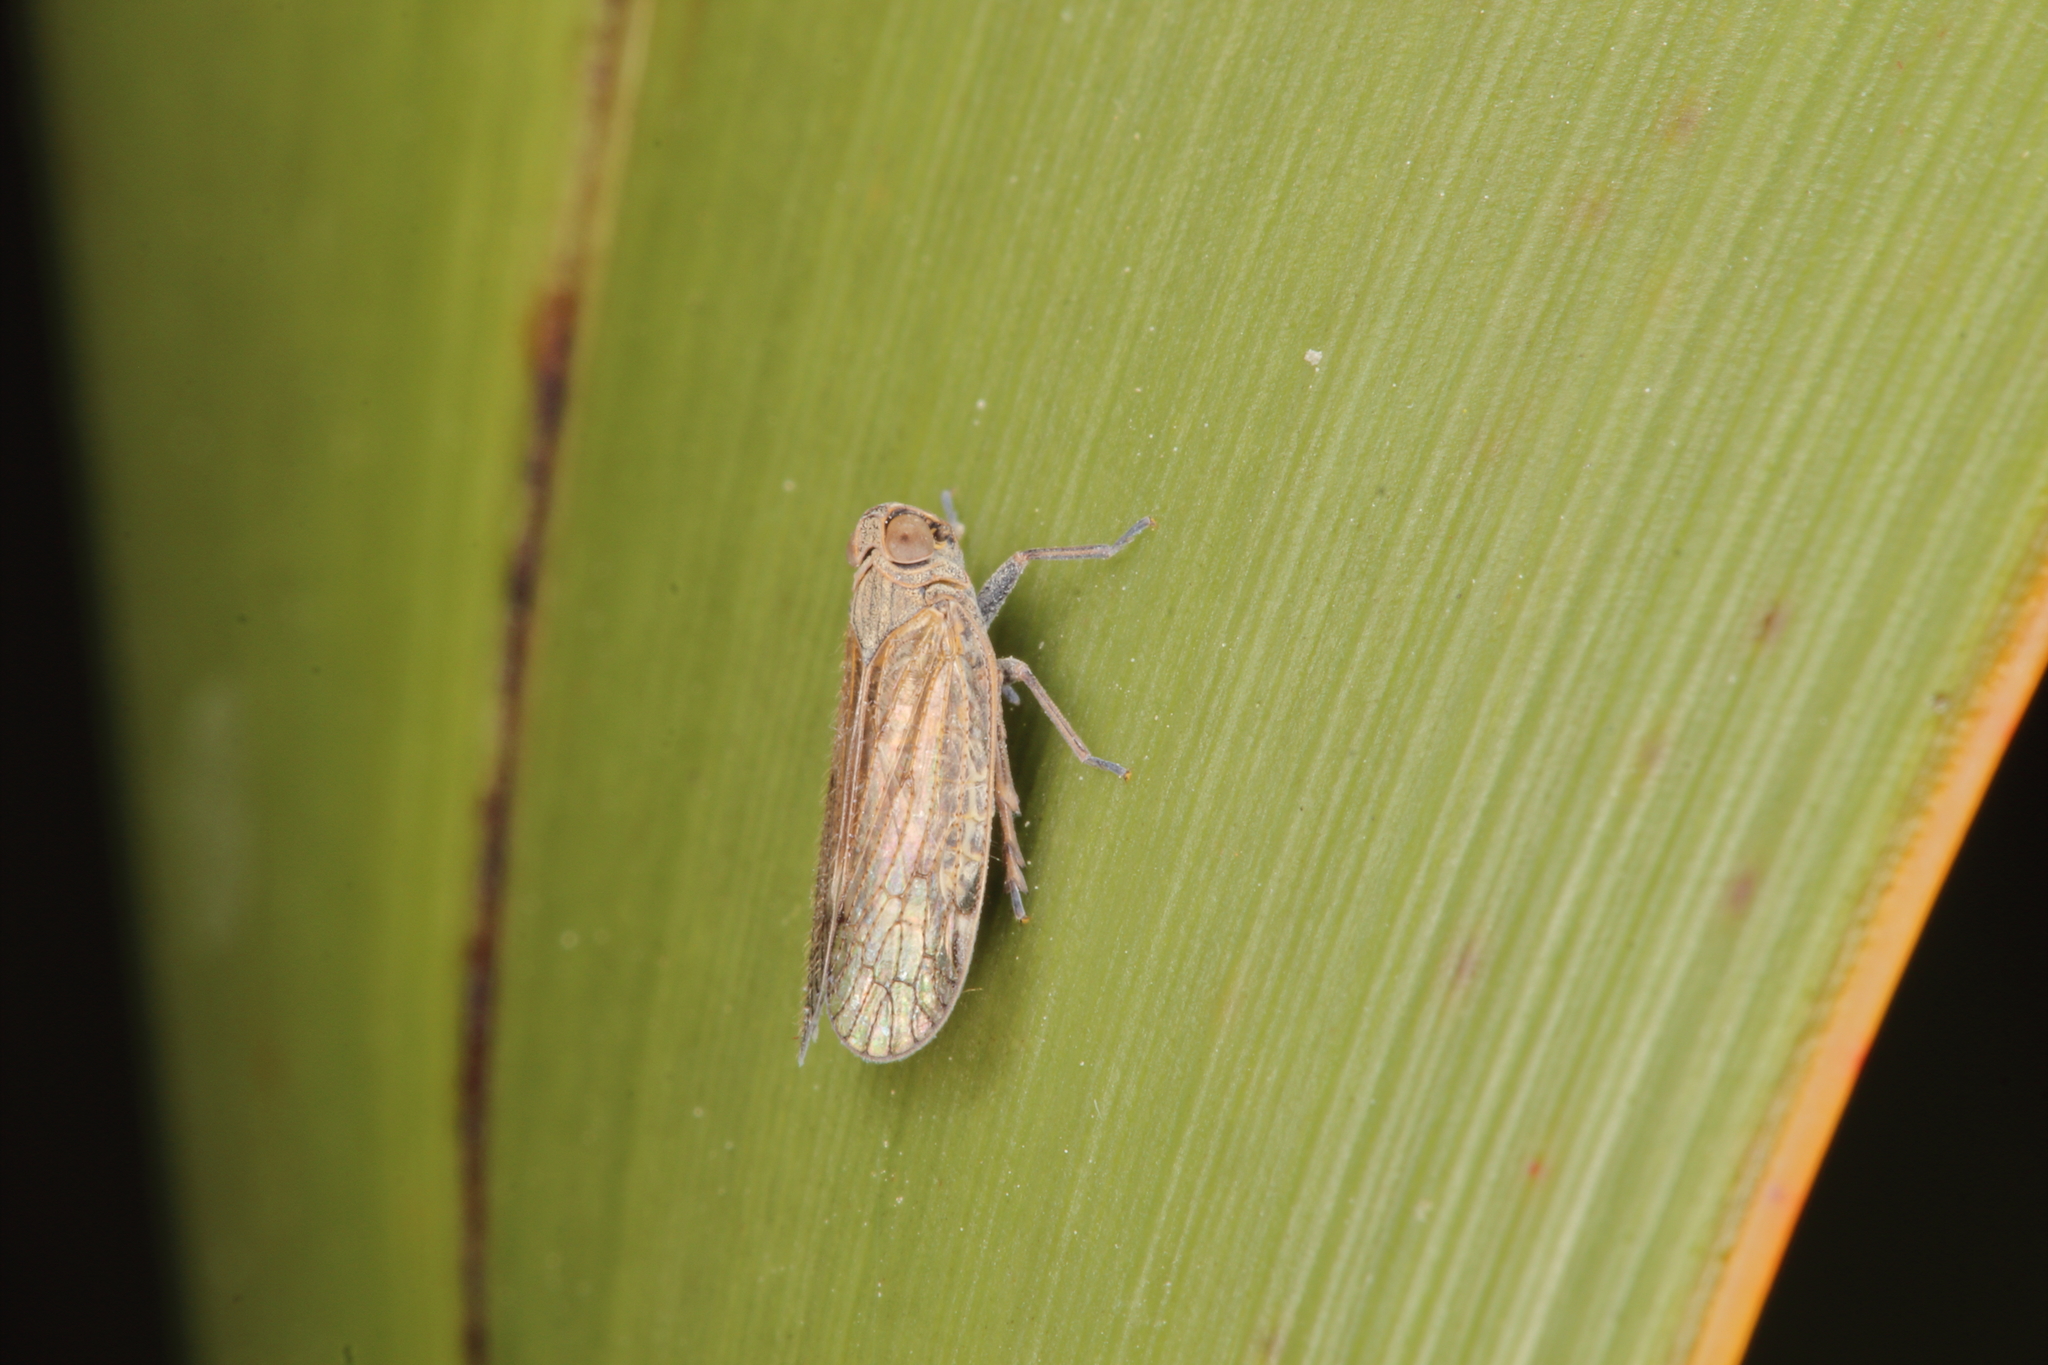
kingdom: Animalia
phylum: Arthropoda
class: Insecta
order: Hemiptera
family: Cixiidae
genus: Zeoliarus
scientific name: Zeoliarus oppositus
